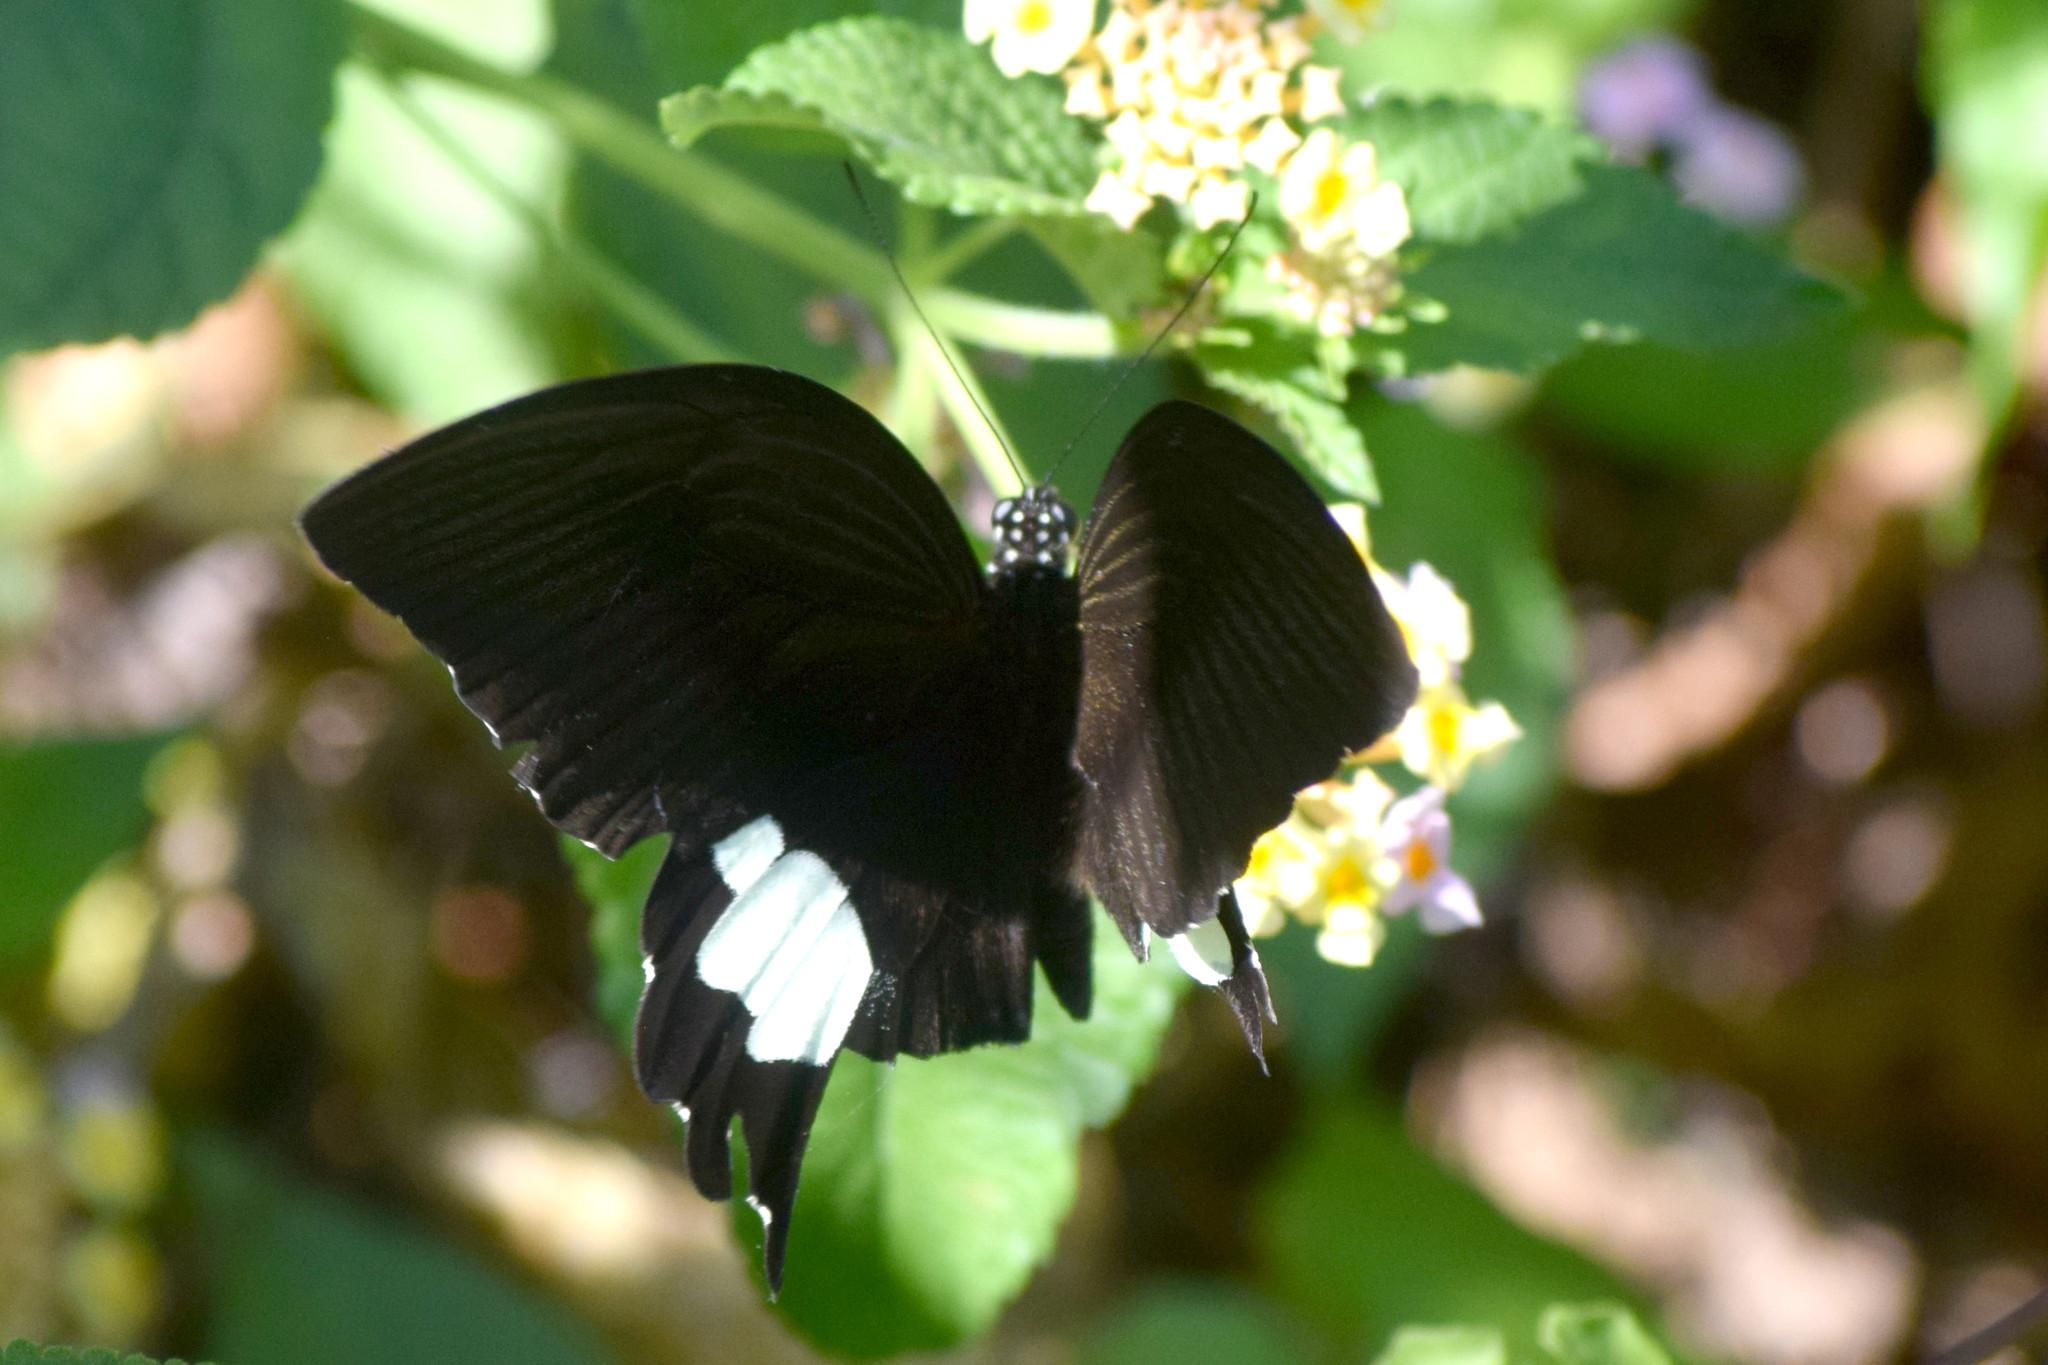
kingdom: Animalia
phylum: Arthropoda
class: Insecta
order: Lepidoptera
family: Papilionidae
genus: Papilio
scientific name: Papilio helenus
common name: Red helen
